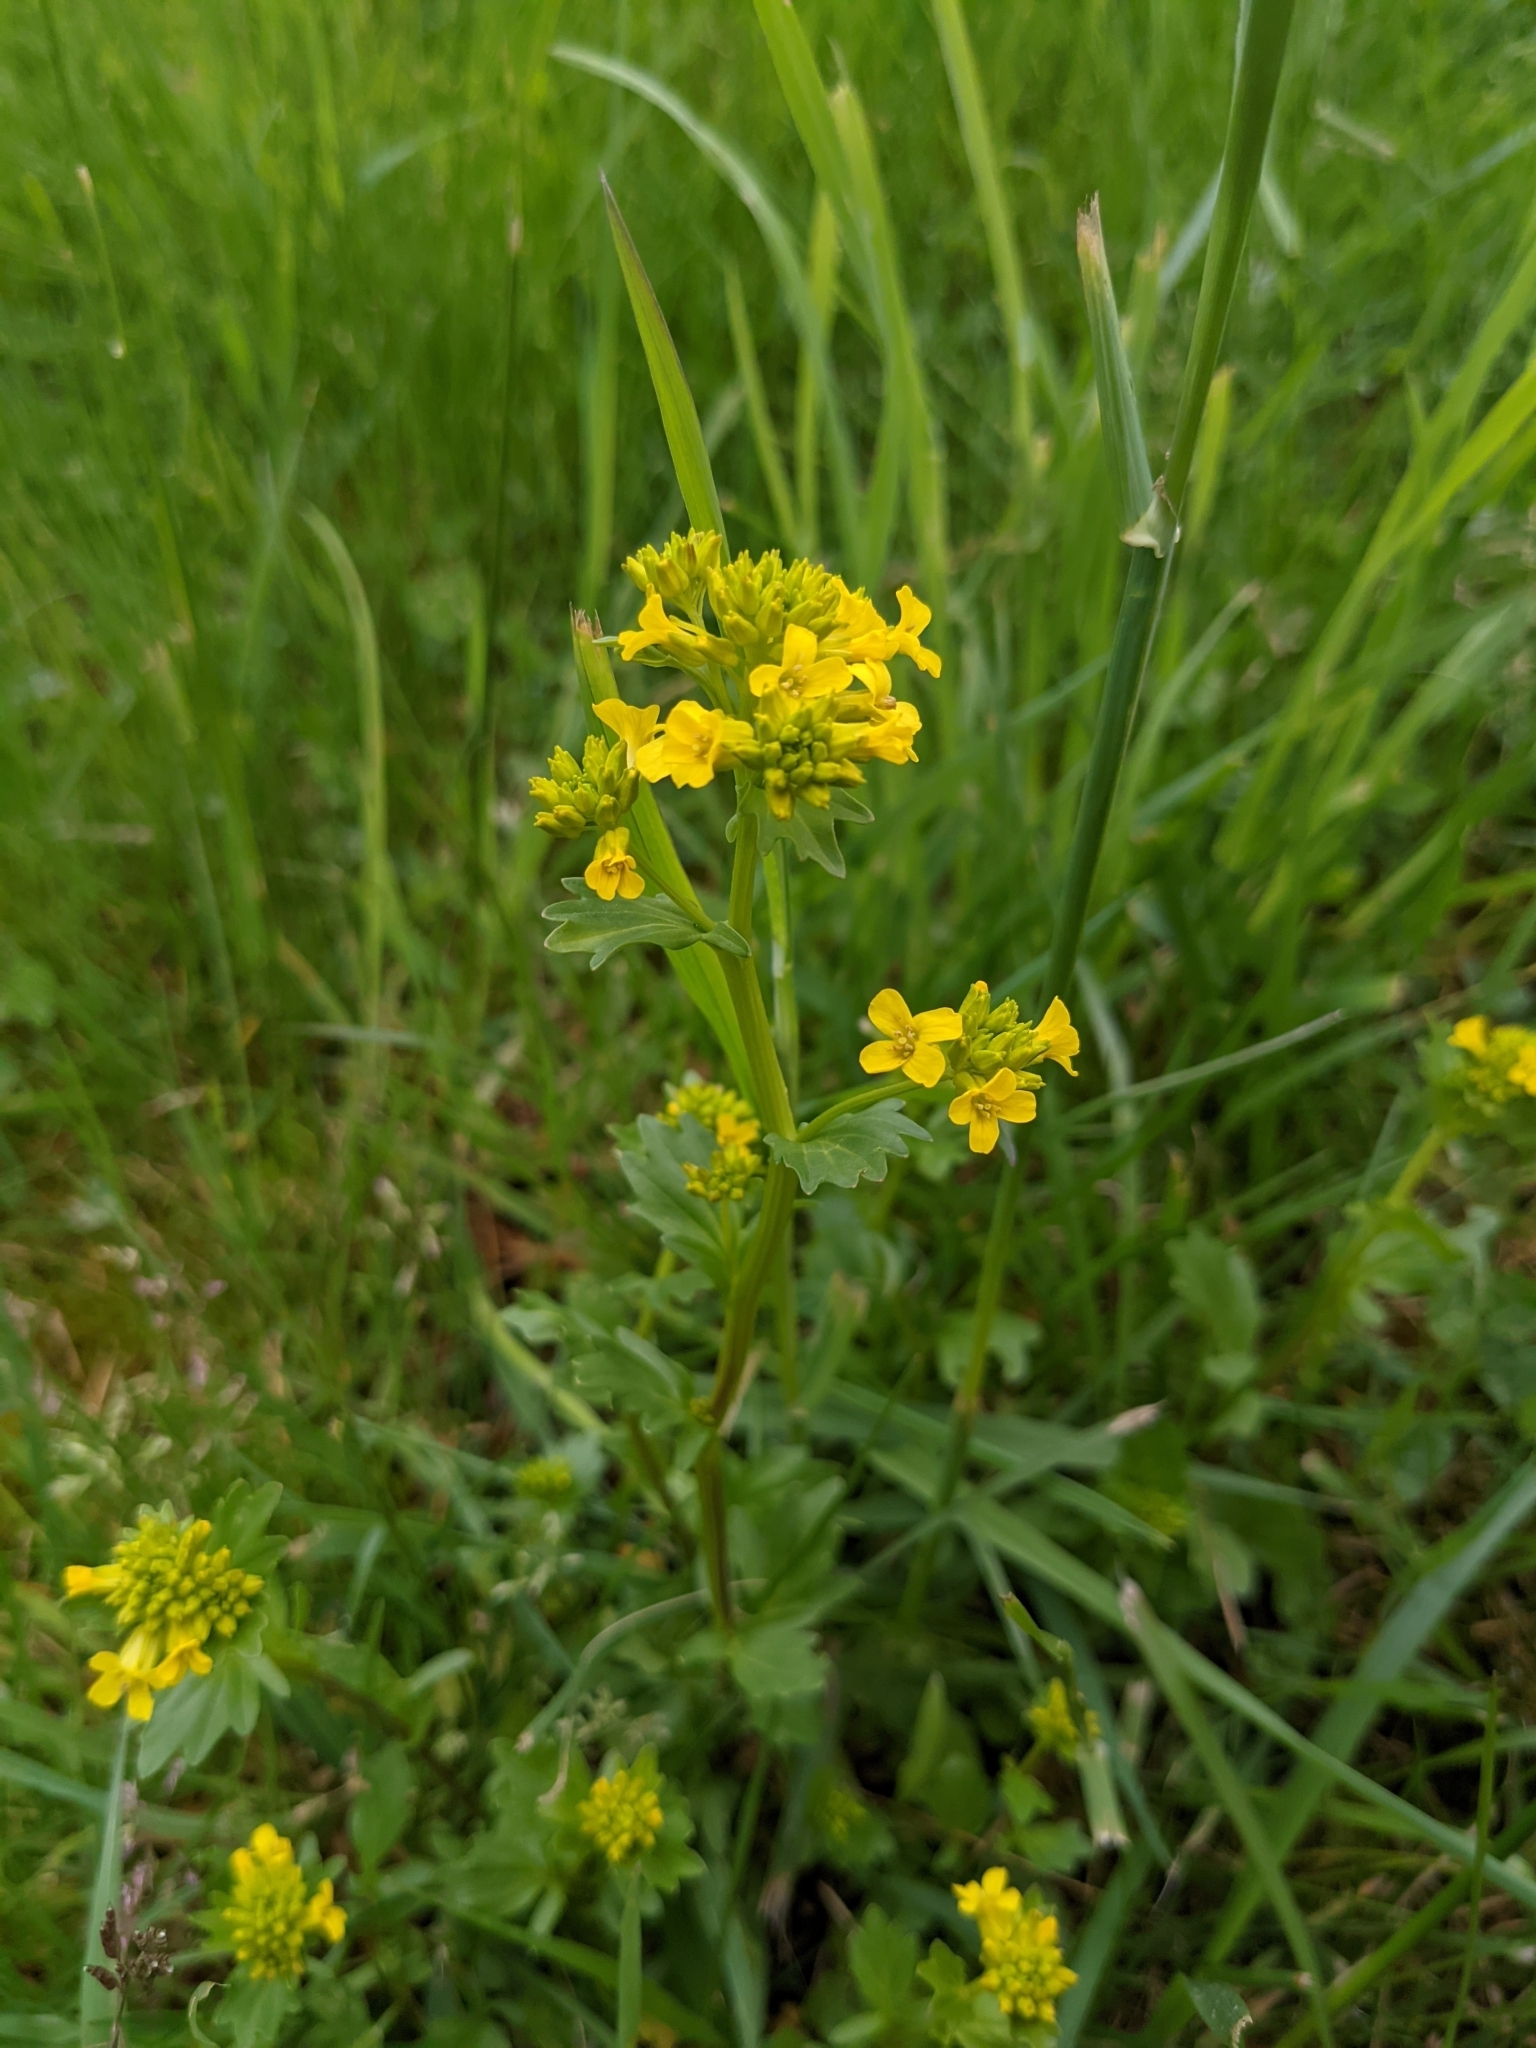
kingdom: Plantae
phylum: Tracheophyta
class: Magnoliopsida
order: Brassicales
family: Brassicaceae
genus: Barbarea
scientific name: Barbarea vulgaris
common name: Cressy-greens
